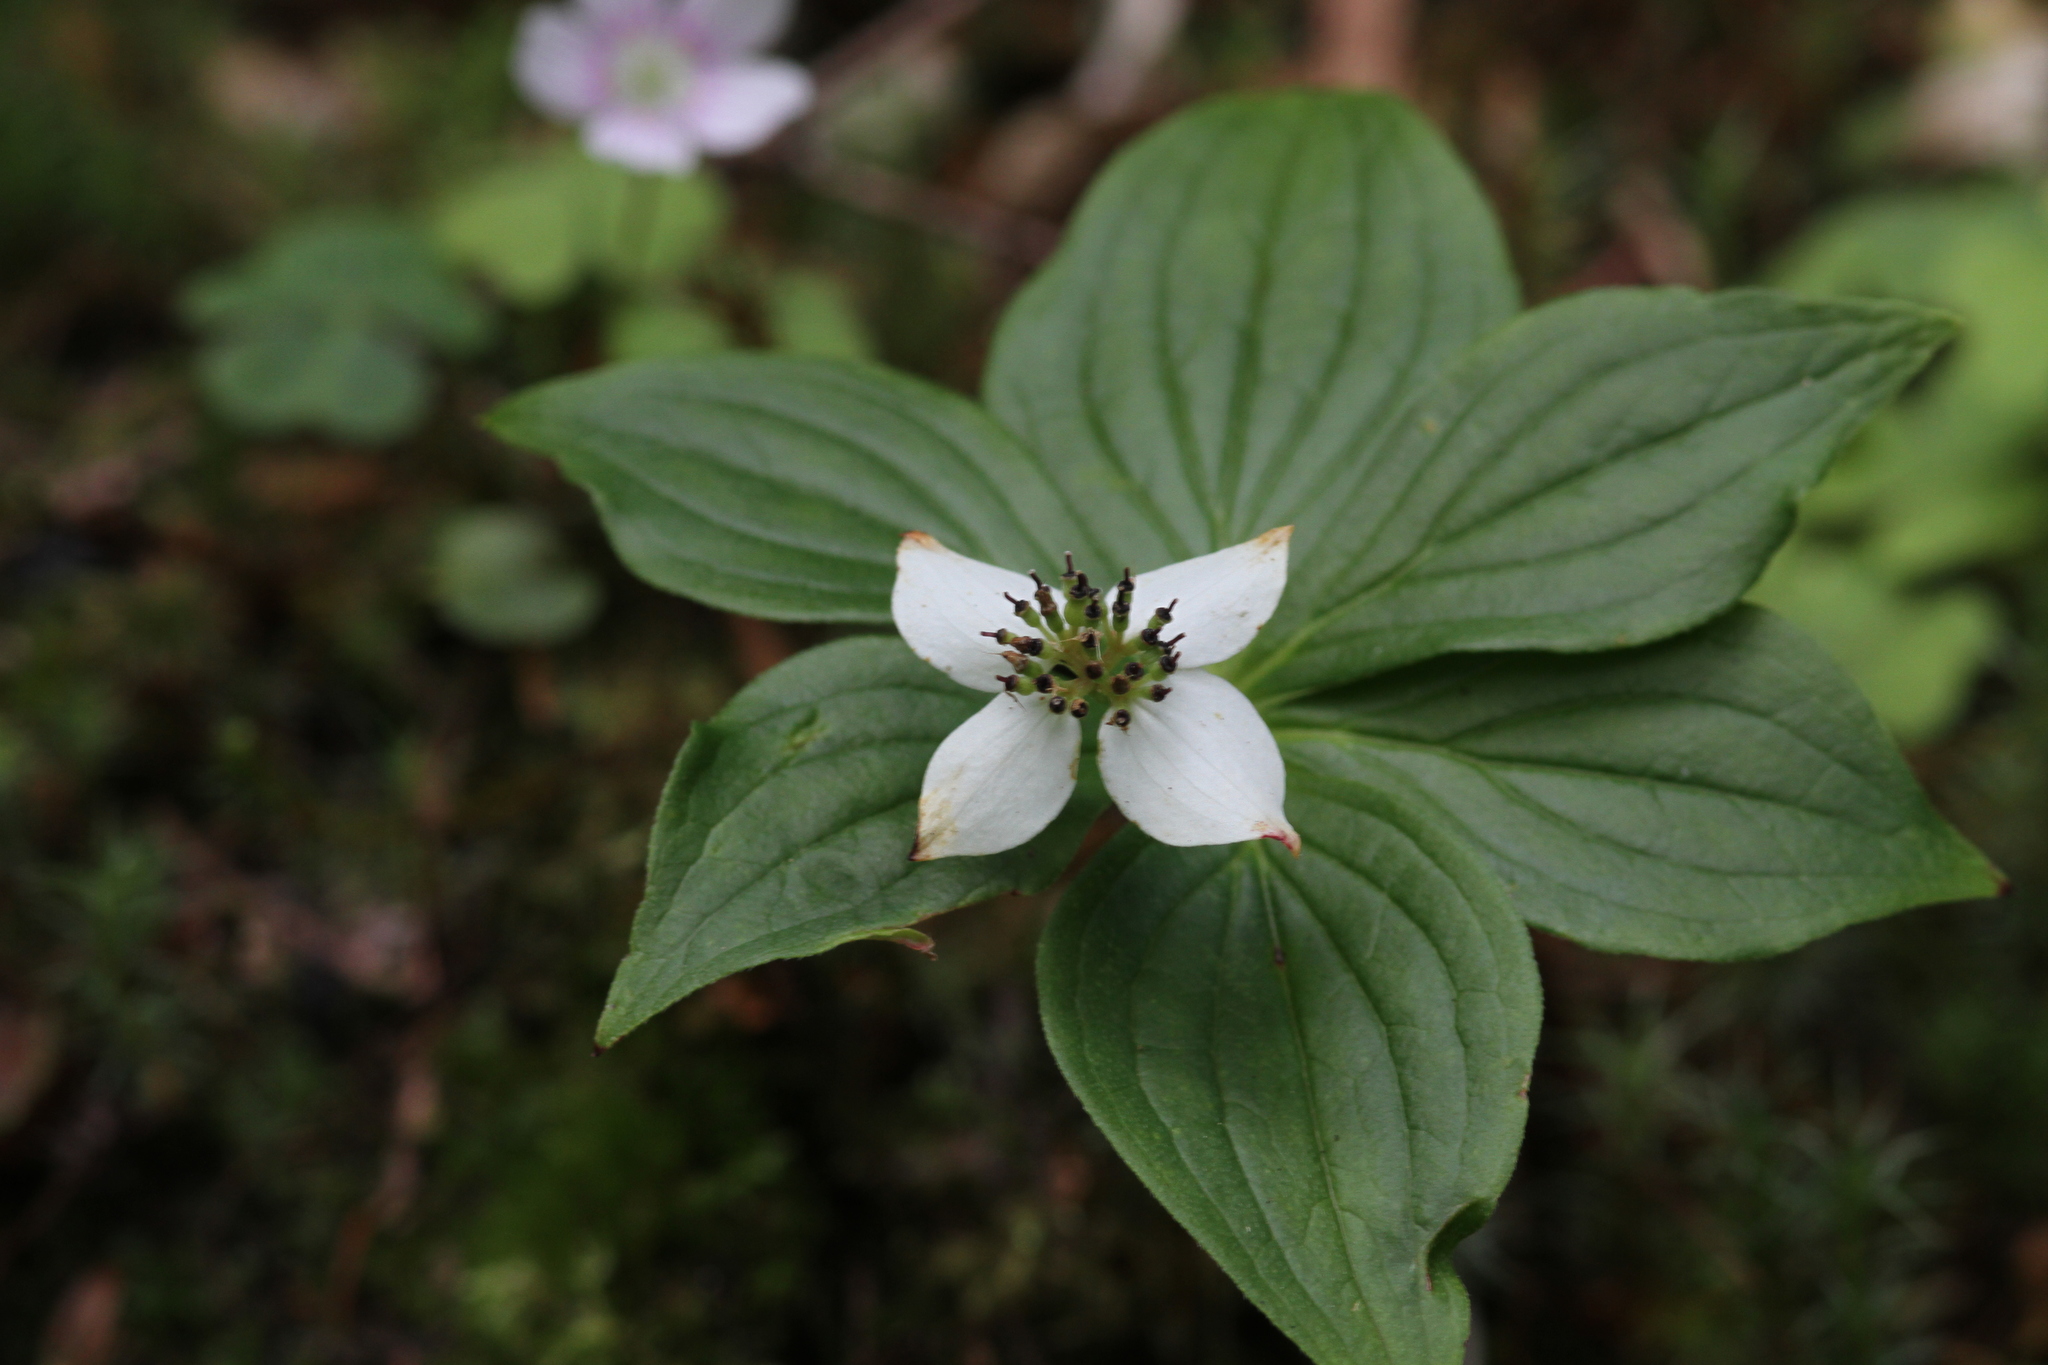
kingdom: Plantae
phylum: Tracheophyta
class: Magnoliopsida
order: Cornales
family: Cornaceae
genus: Cornus
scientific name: Cornus canadensis
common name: Creeping dogwood
